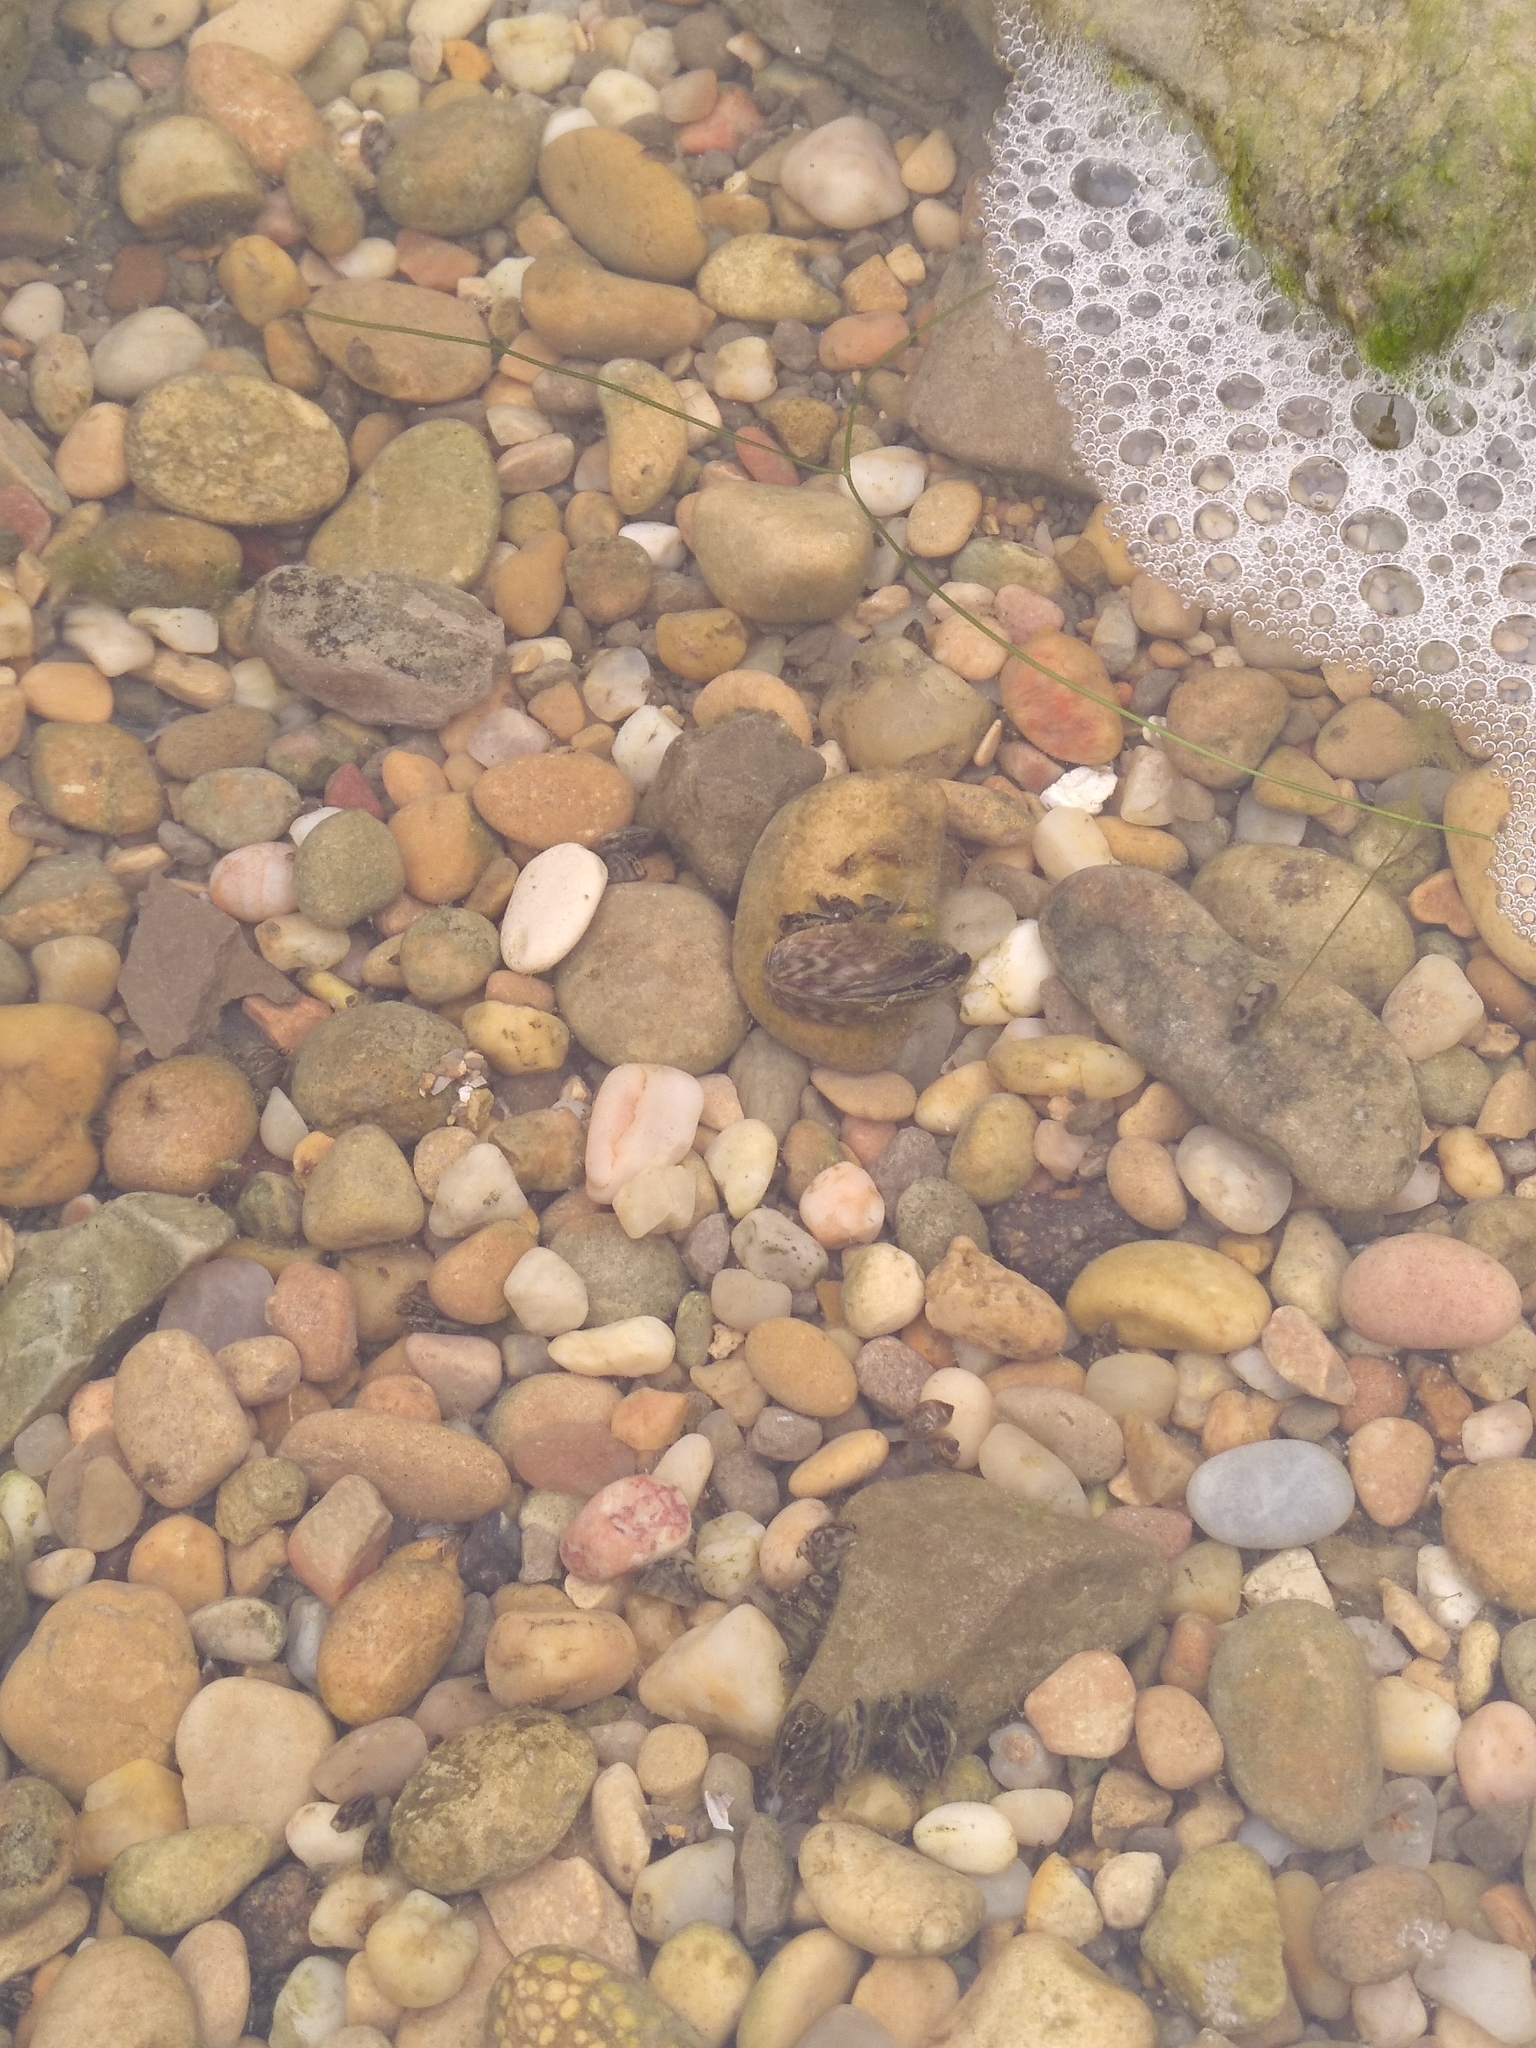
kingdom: Animalia
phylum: Mollusca
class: Bivalvia
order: Myida
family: Dreissenidae
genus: Dreissena
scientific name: Dreissena polymorpha
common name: Zebra mussel
